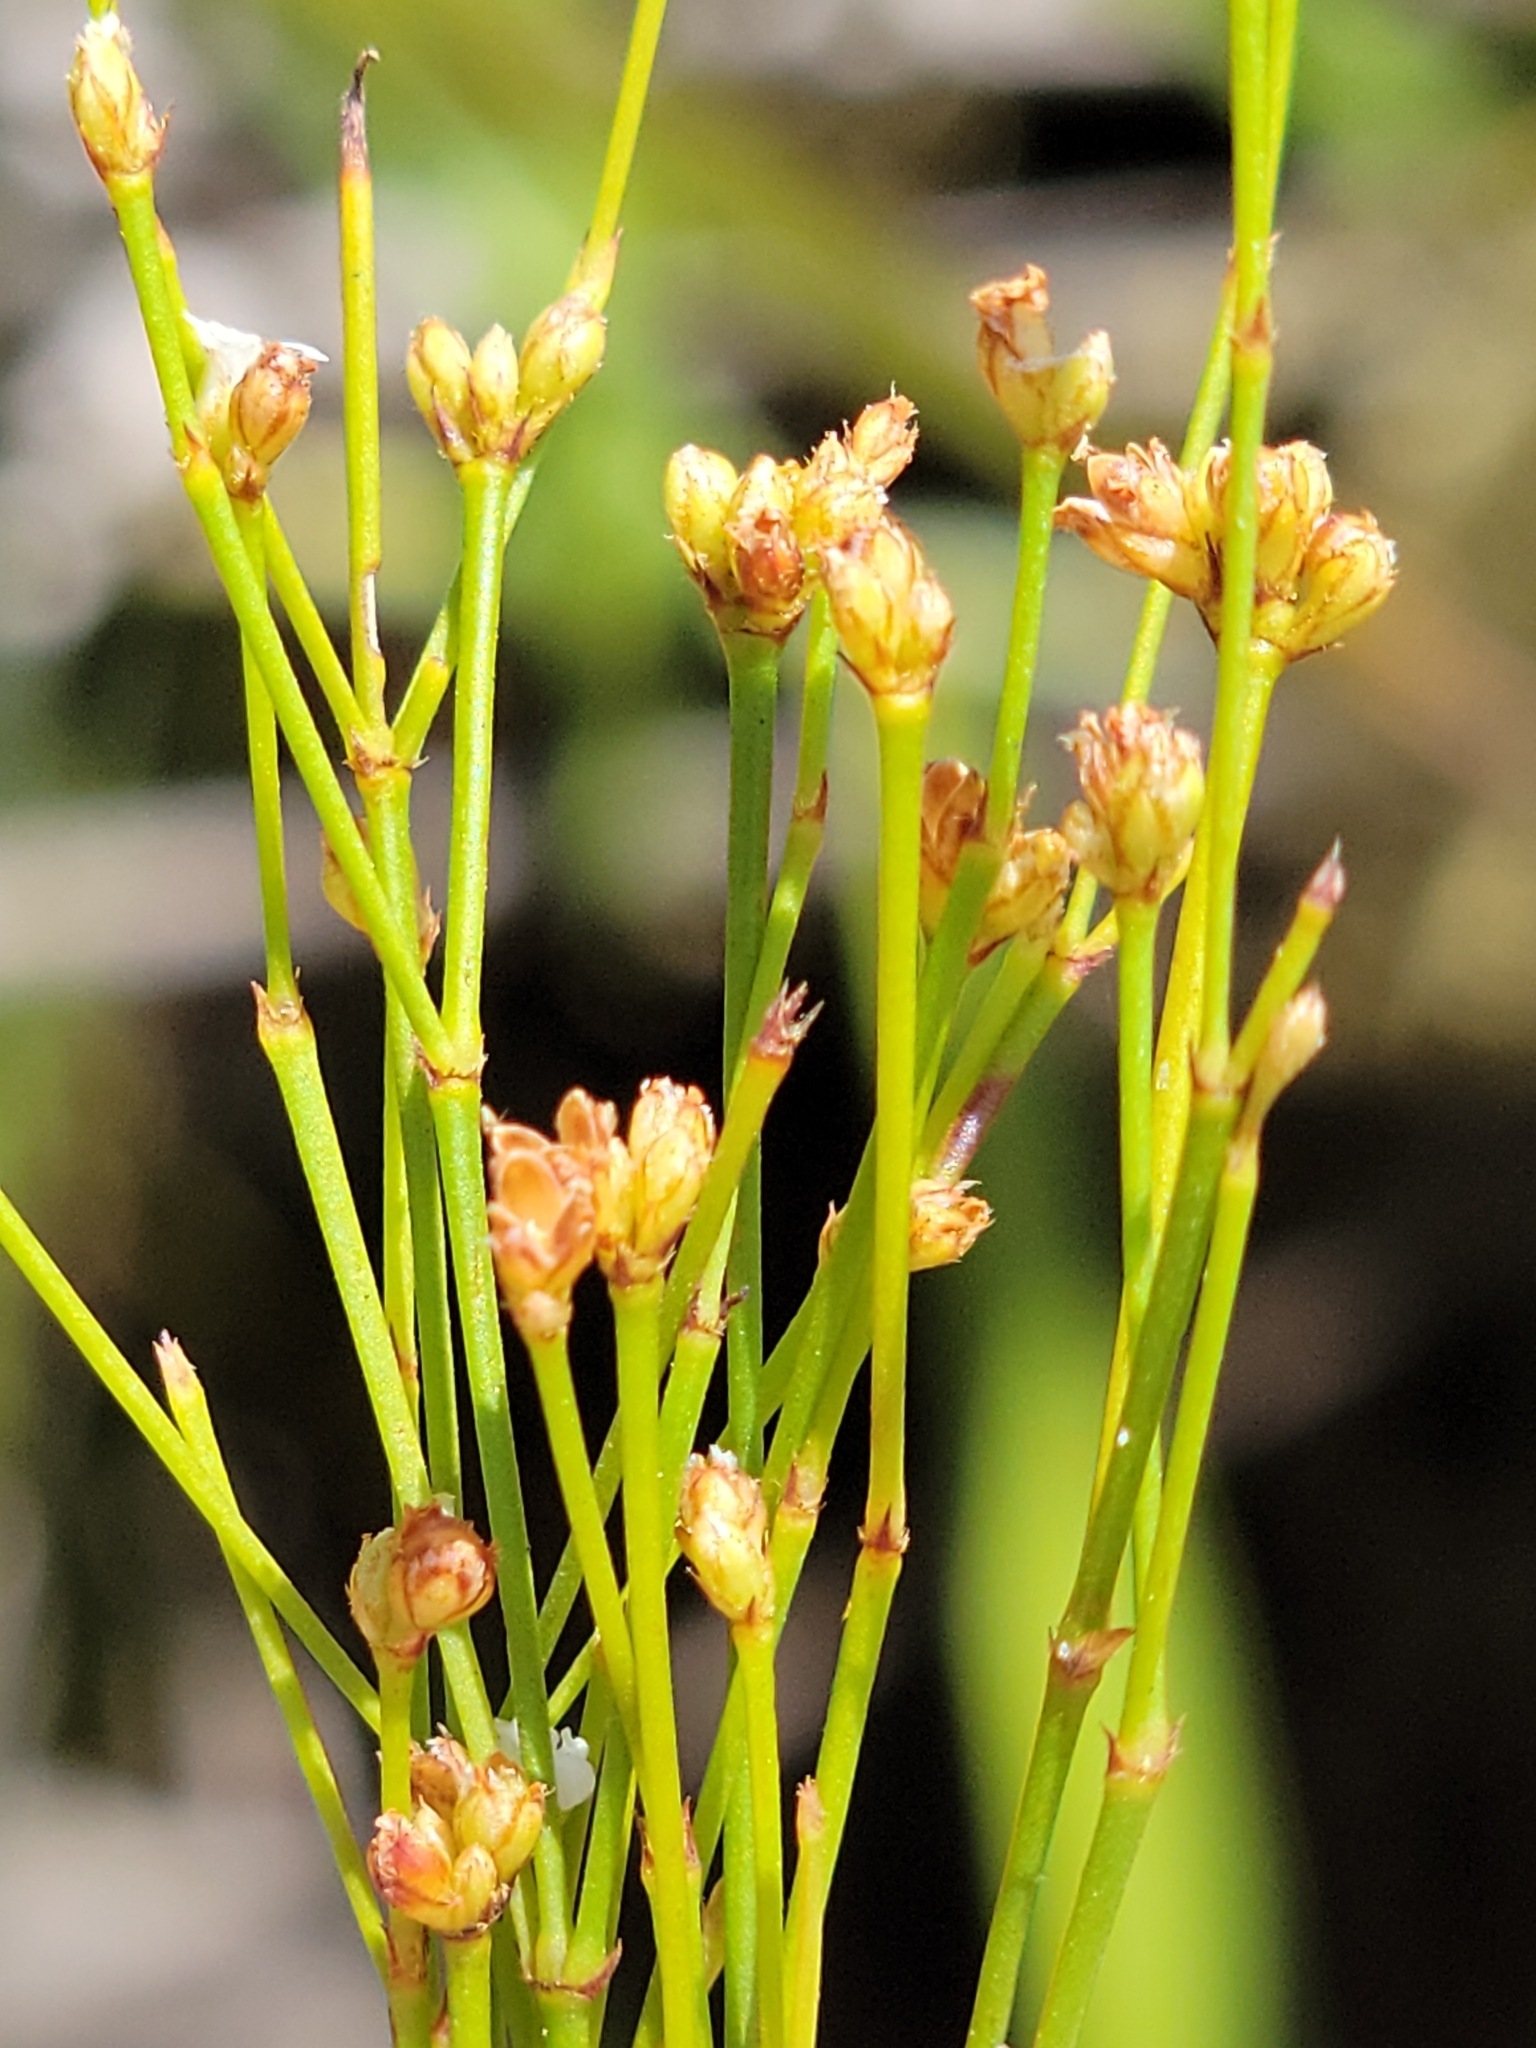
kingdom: Plantae
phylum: Tracheophyta
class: Magnoliopsida
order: Caryophyllales
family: Caryophyllaceae
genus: Stipulicida
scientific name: Stipulicida setacea
